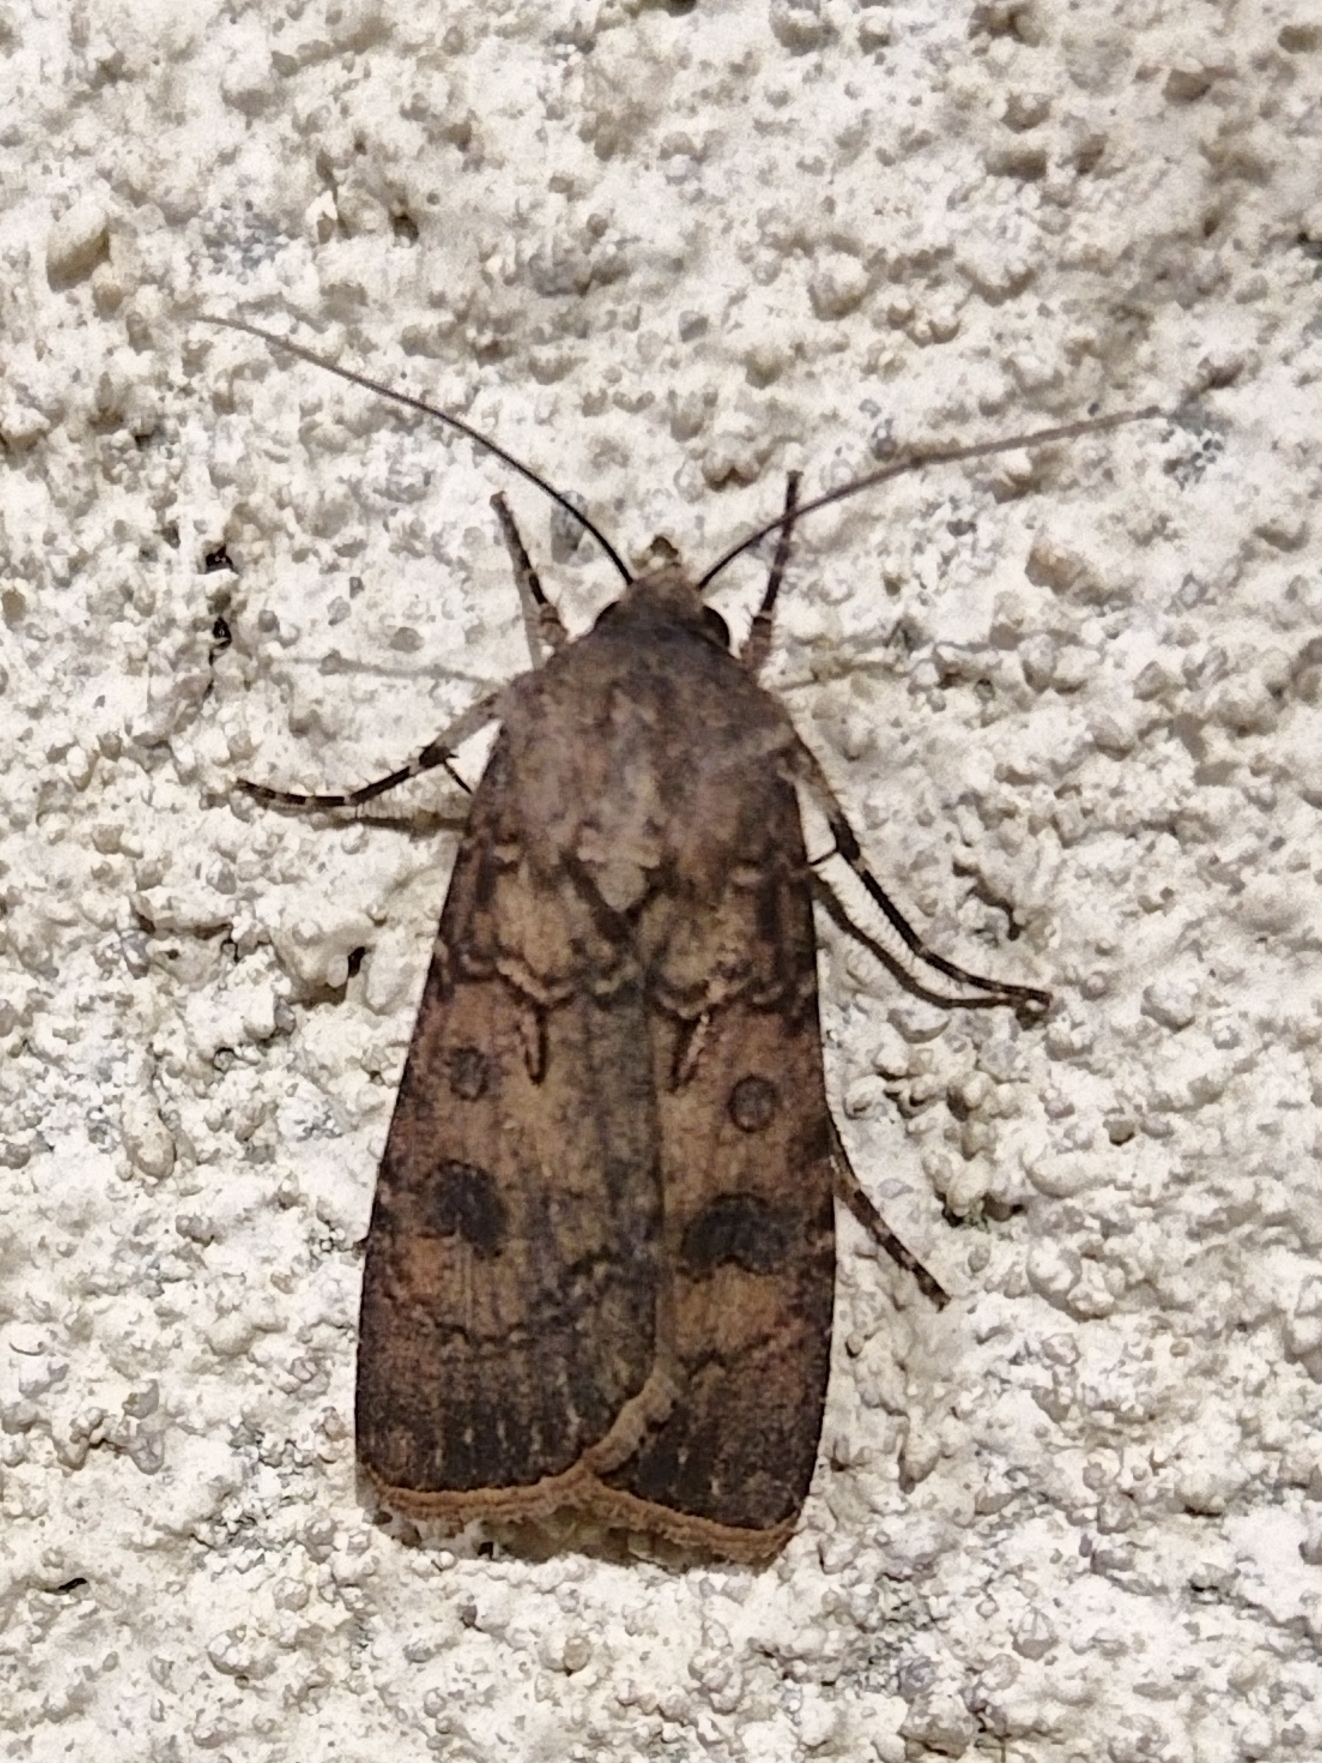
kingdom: Animalia
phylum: Arthropoda
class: Insecta
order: Lepidoptera
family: Noctuidae
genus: Agrotis
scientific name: Agrotis segetum
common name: Turnip moth
